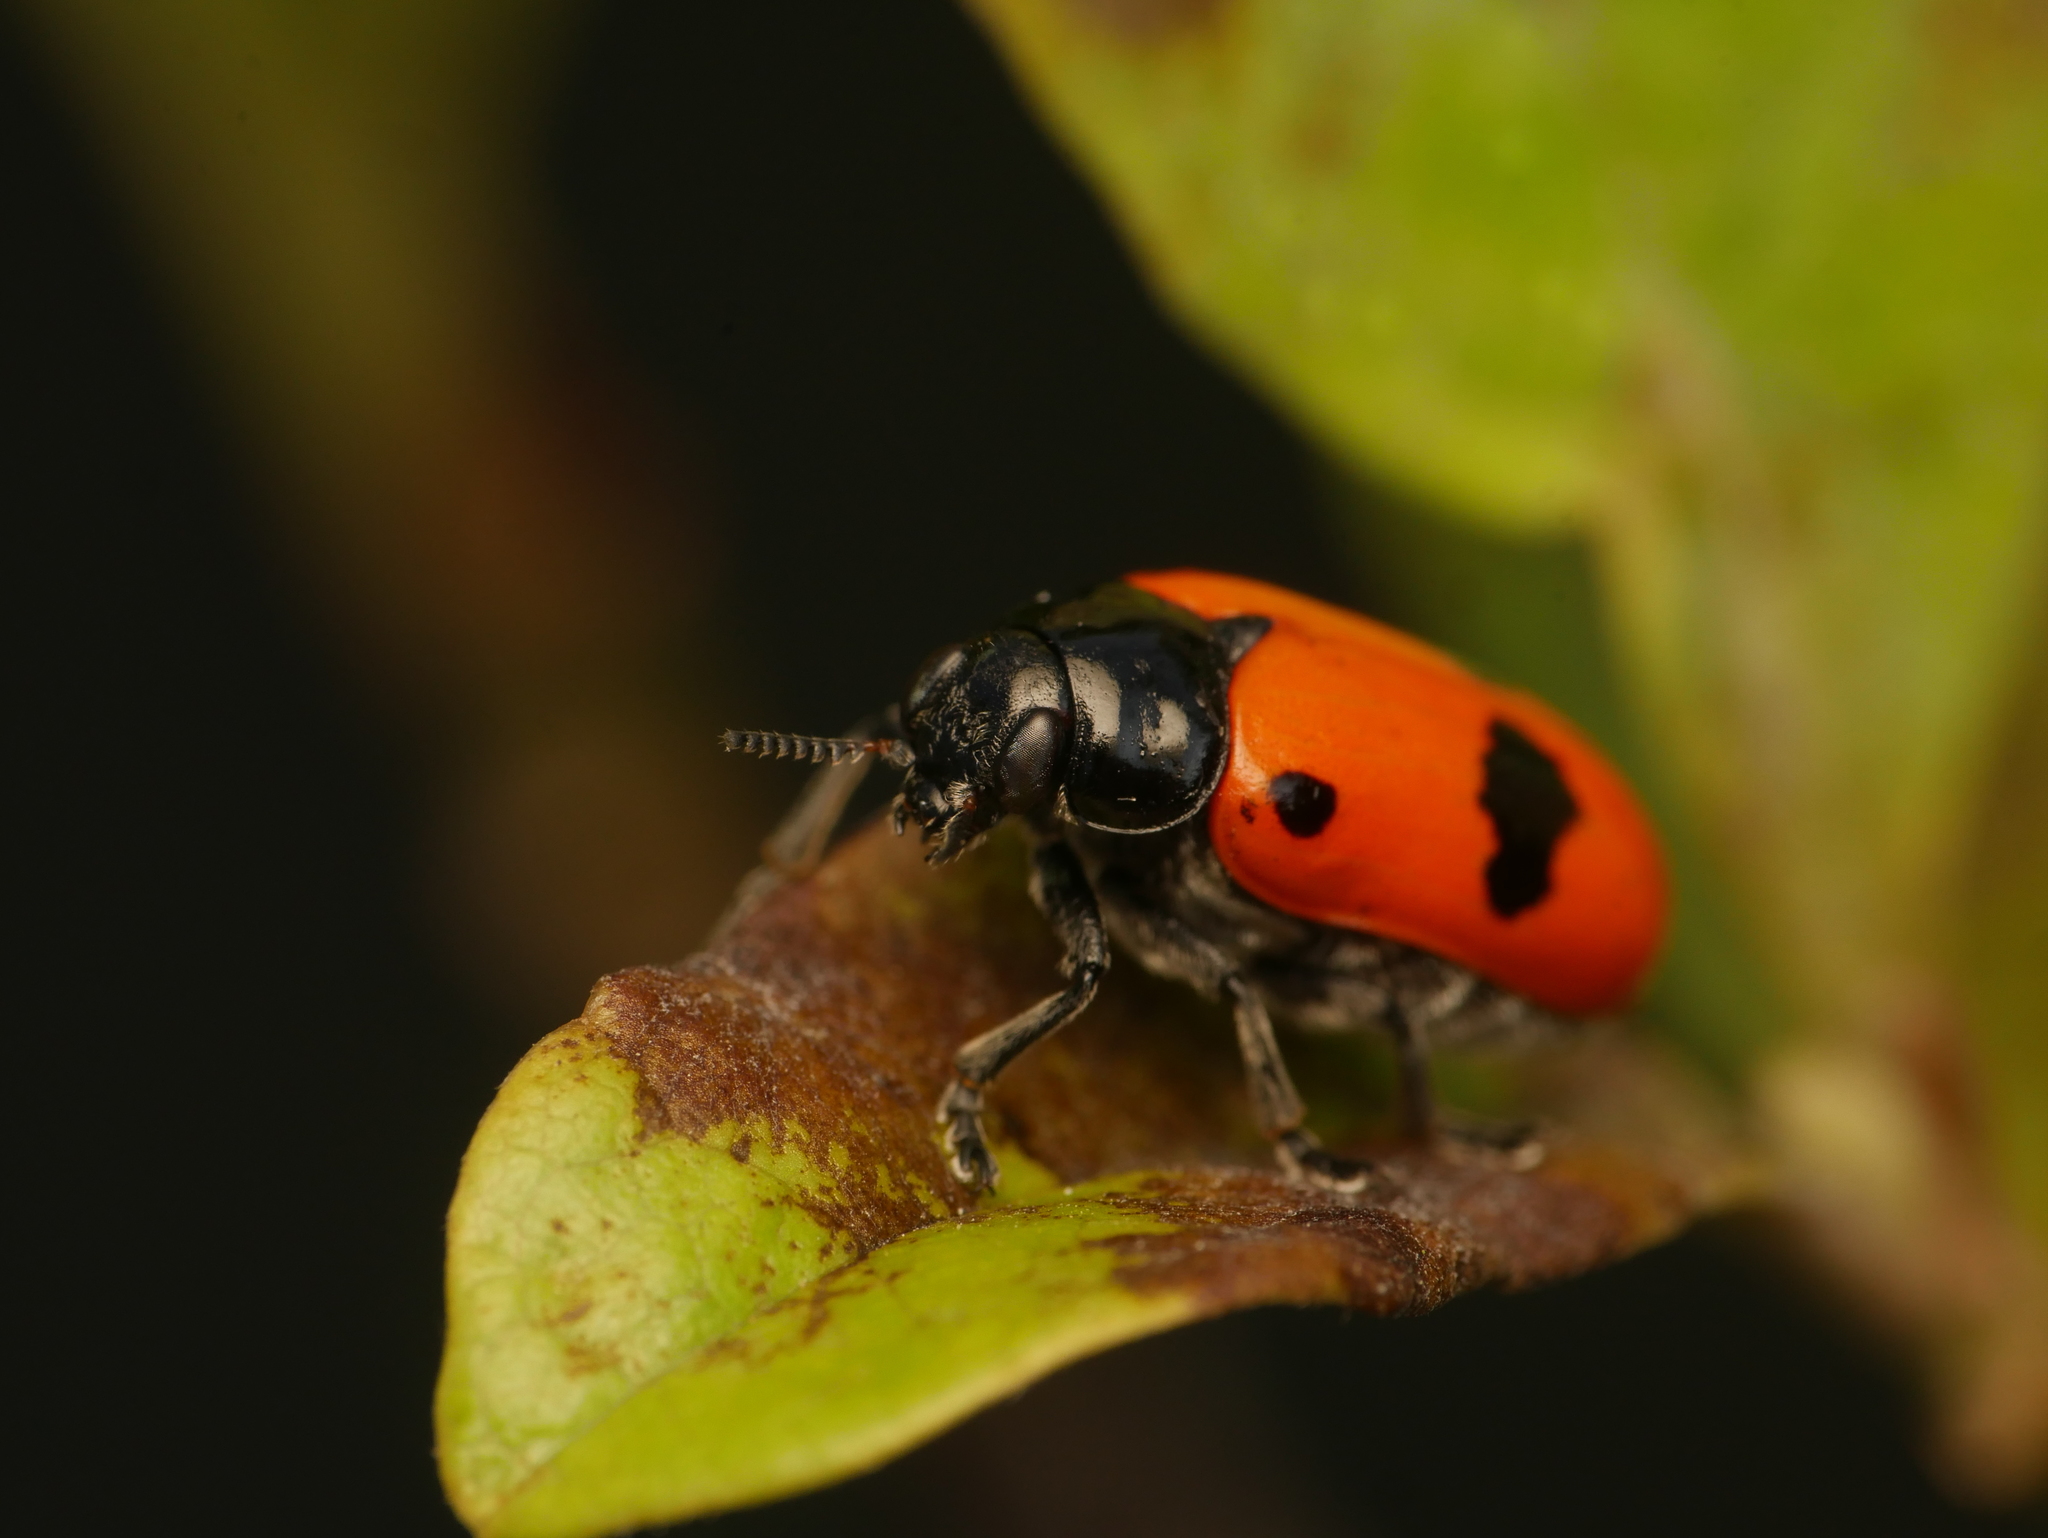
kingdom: Animalia
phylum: Arthropoda
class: Insecta
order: Coleoptera
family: Chrysomelidae
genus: Clytra
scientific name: Clytra laeviuscula
